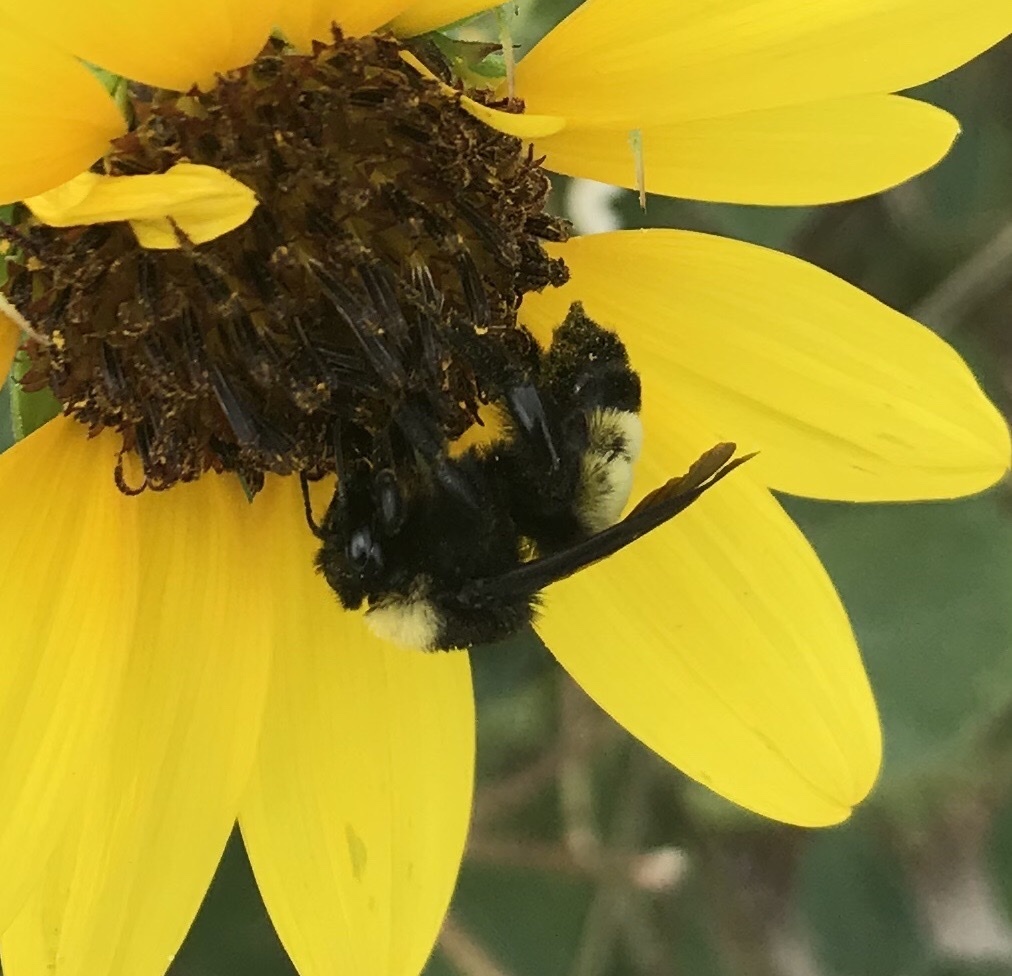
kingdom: Animalia
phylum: Arthropoda
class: Insecta
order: Hymenoptera
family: Apidae
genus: Bombus
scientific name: Bombus pensylvanicus
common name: Bumble bee
